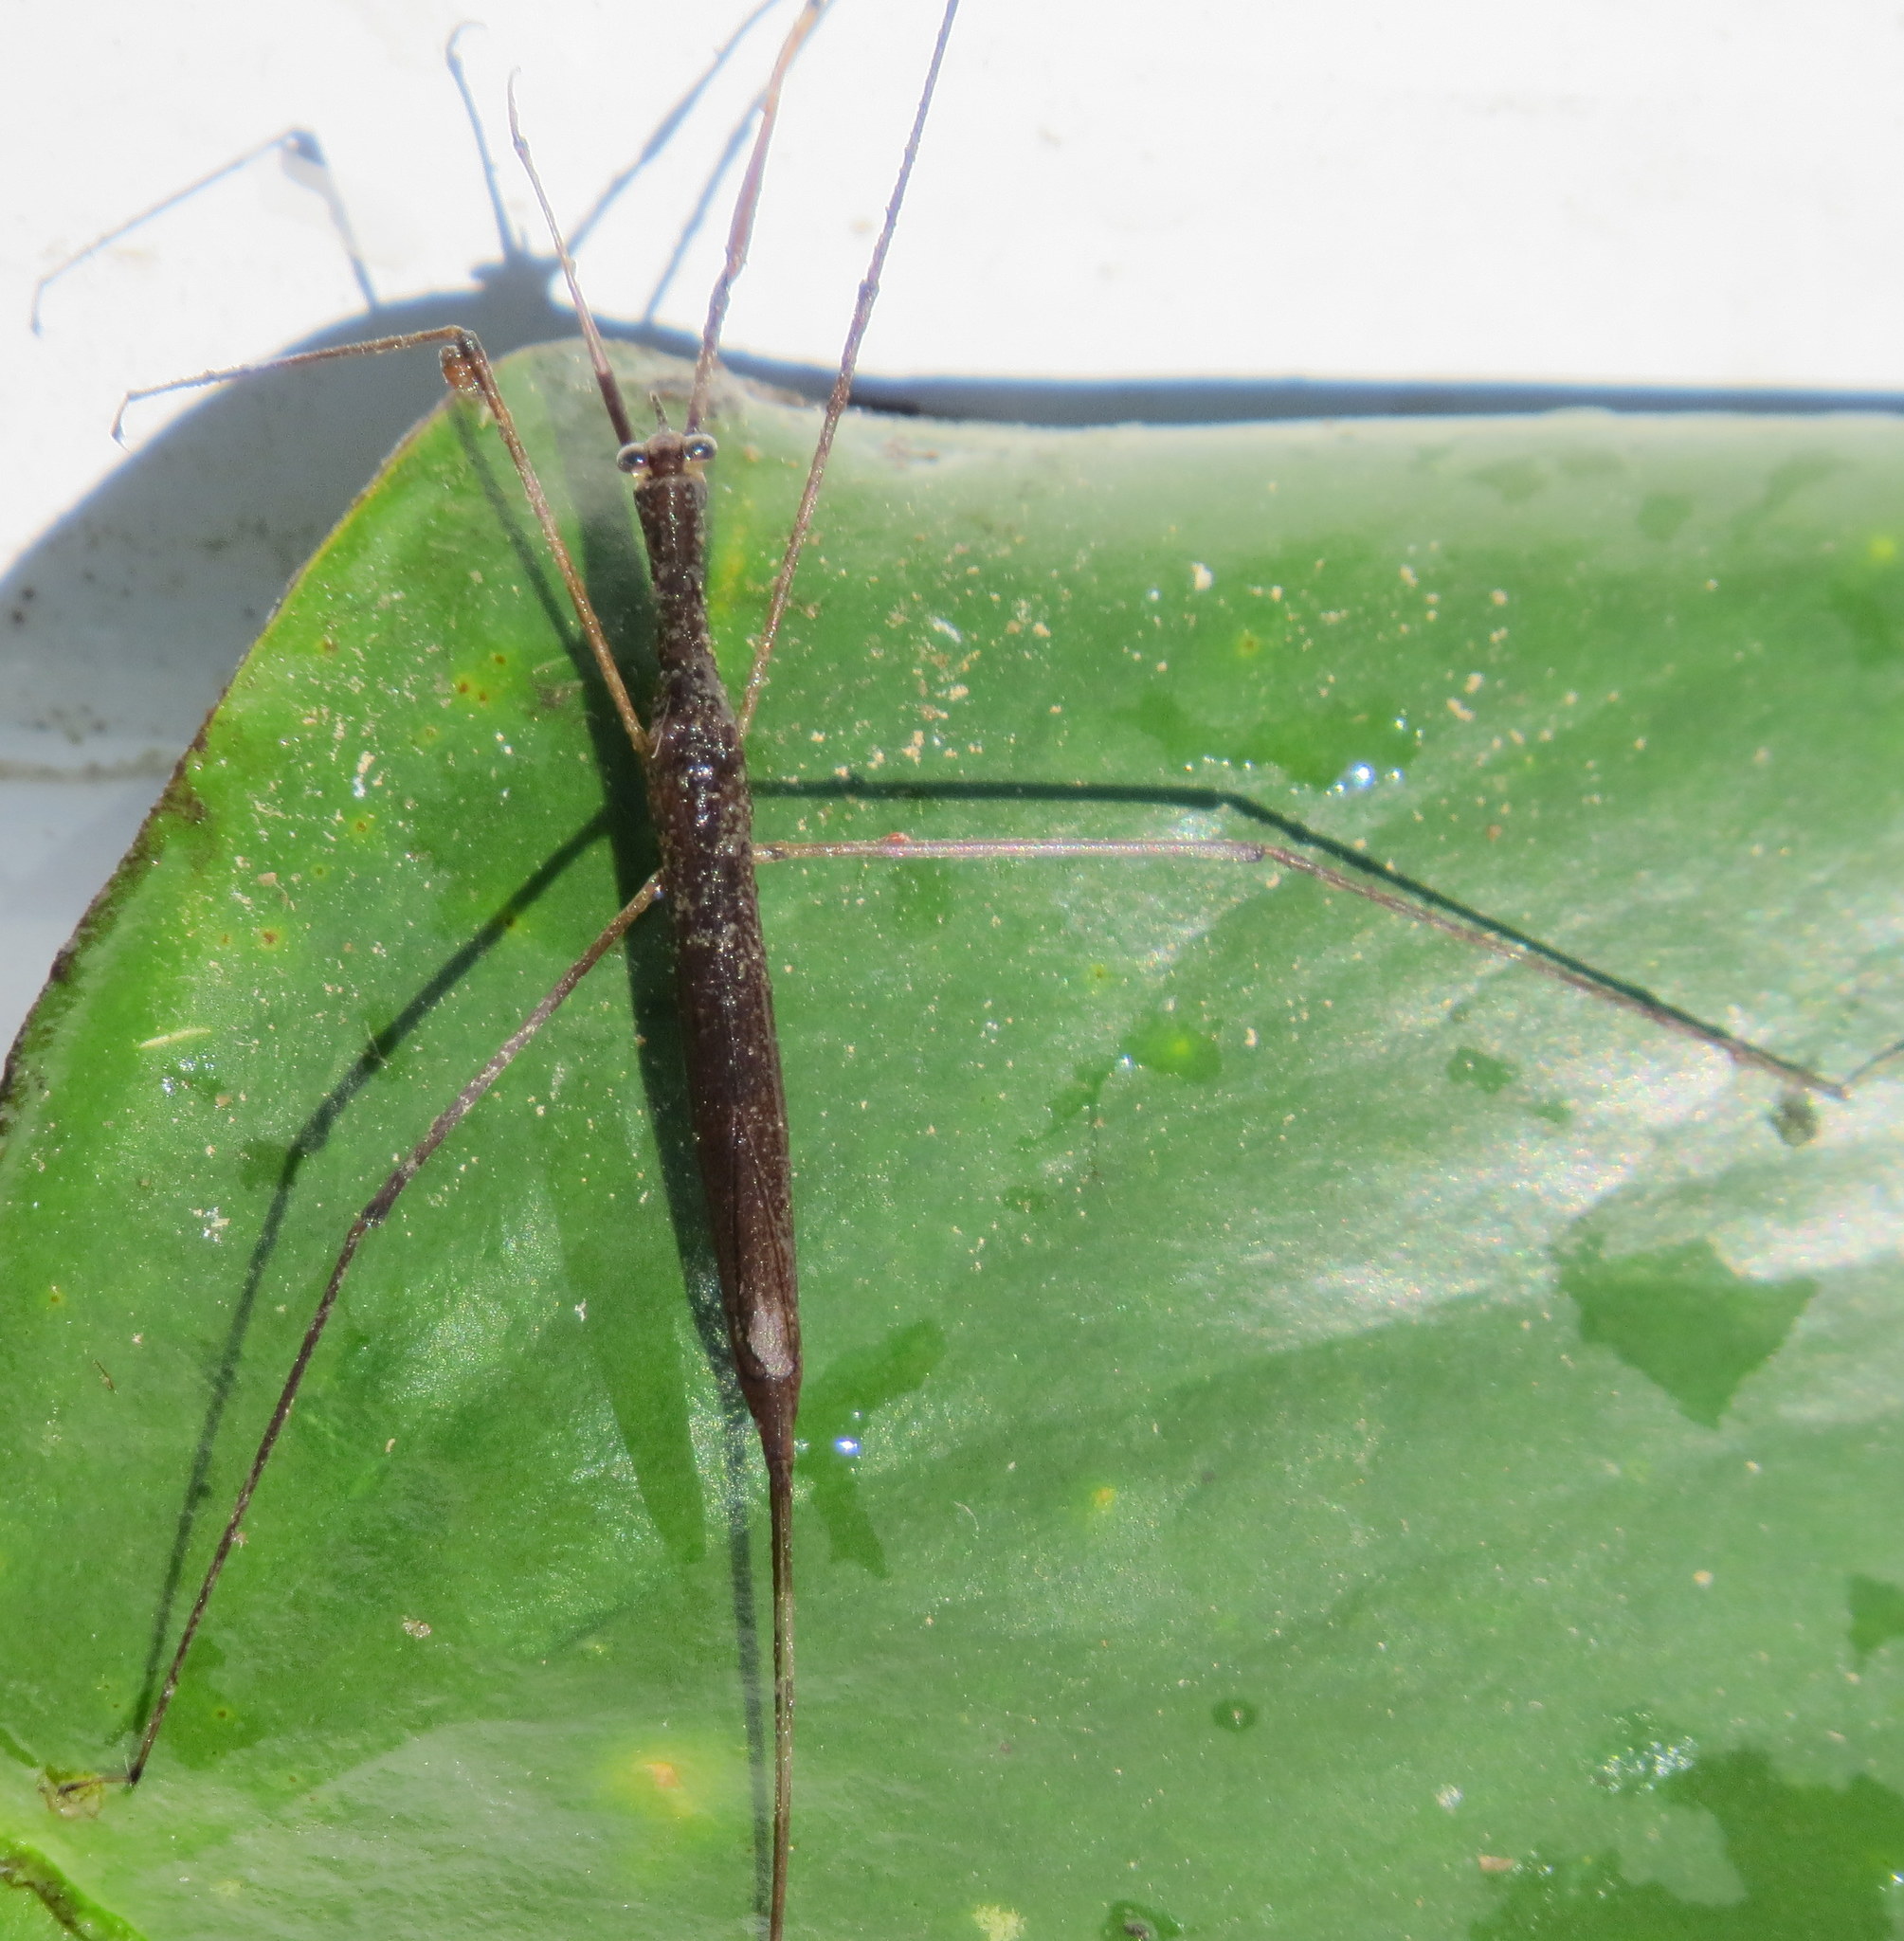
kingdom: Animalia
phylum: Arthropoda
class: Insecta
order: Hemiptera
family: Nepidae
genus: Ranatra
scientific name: Ranatra
